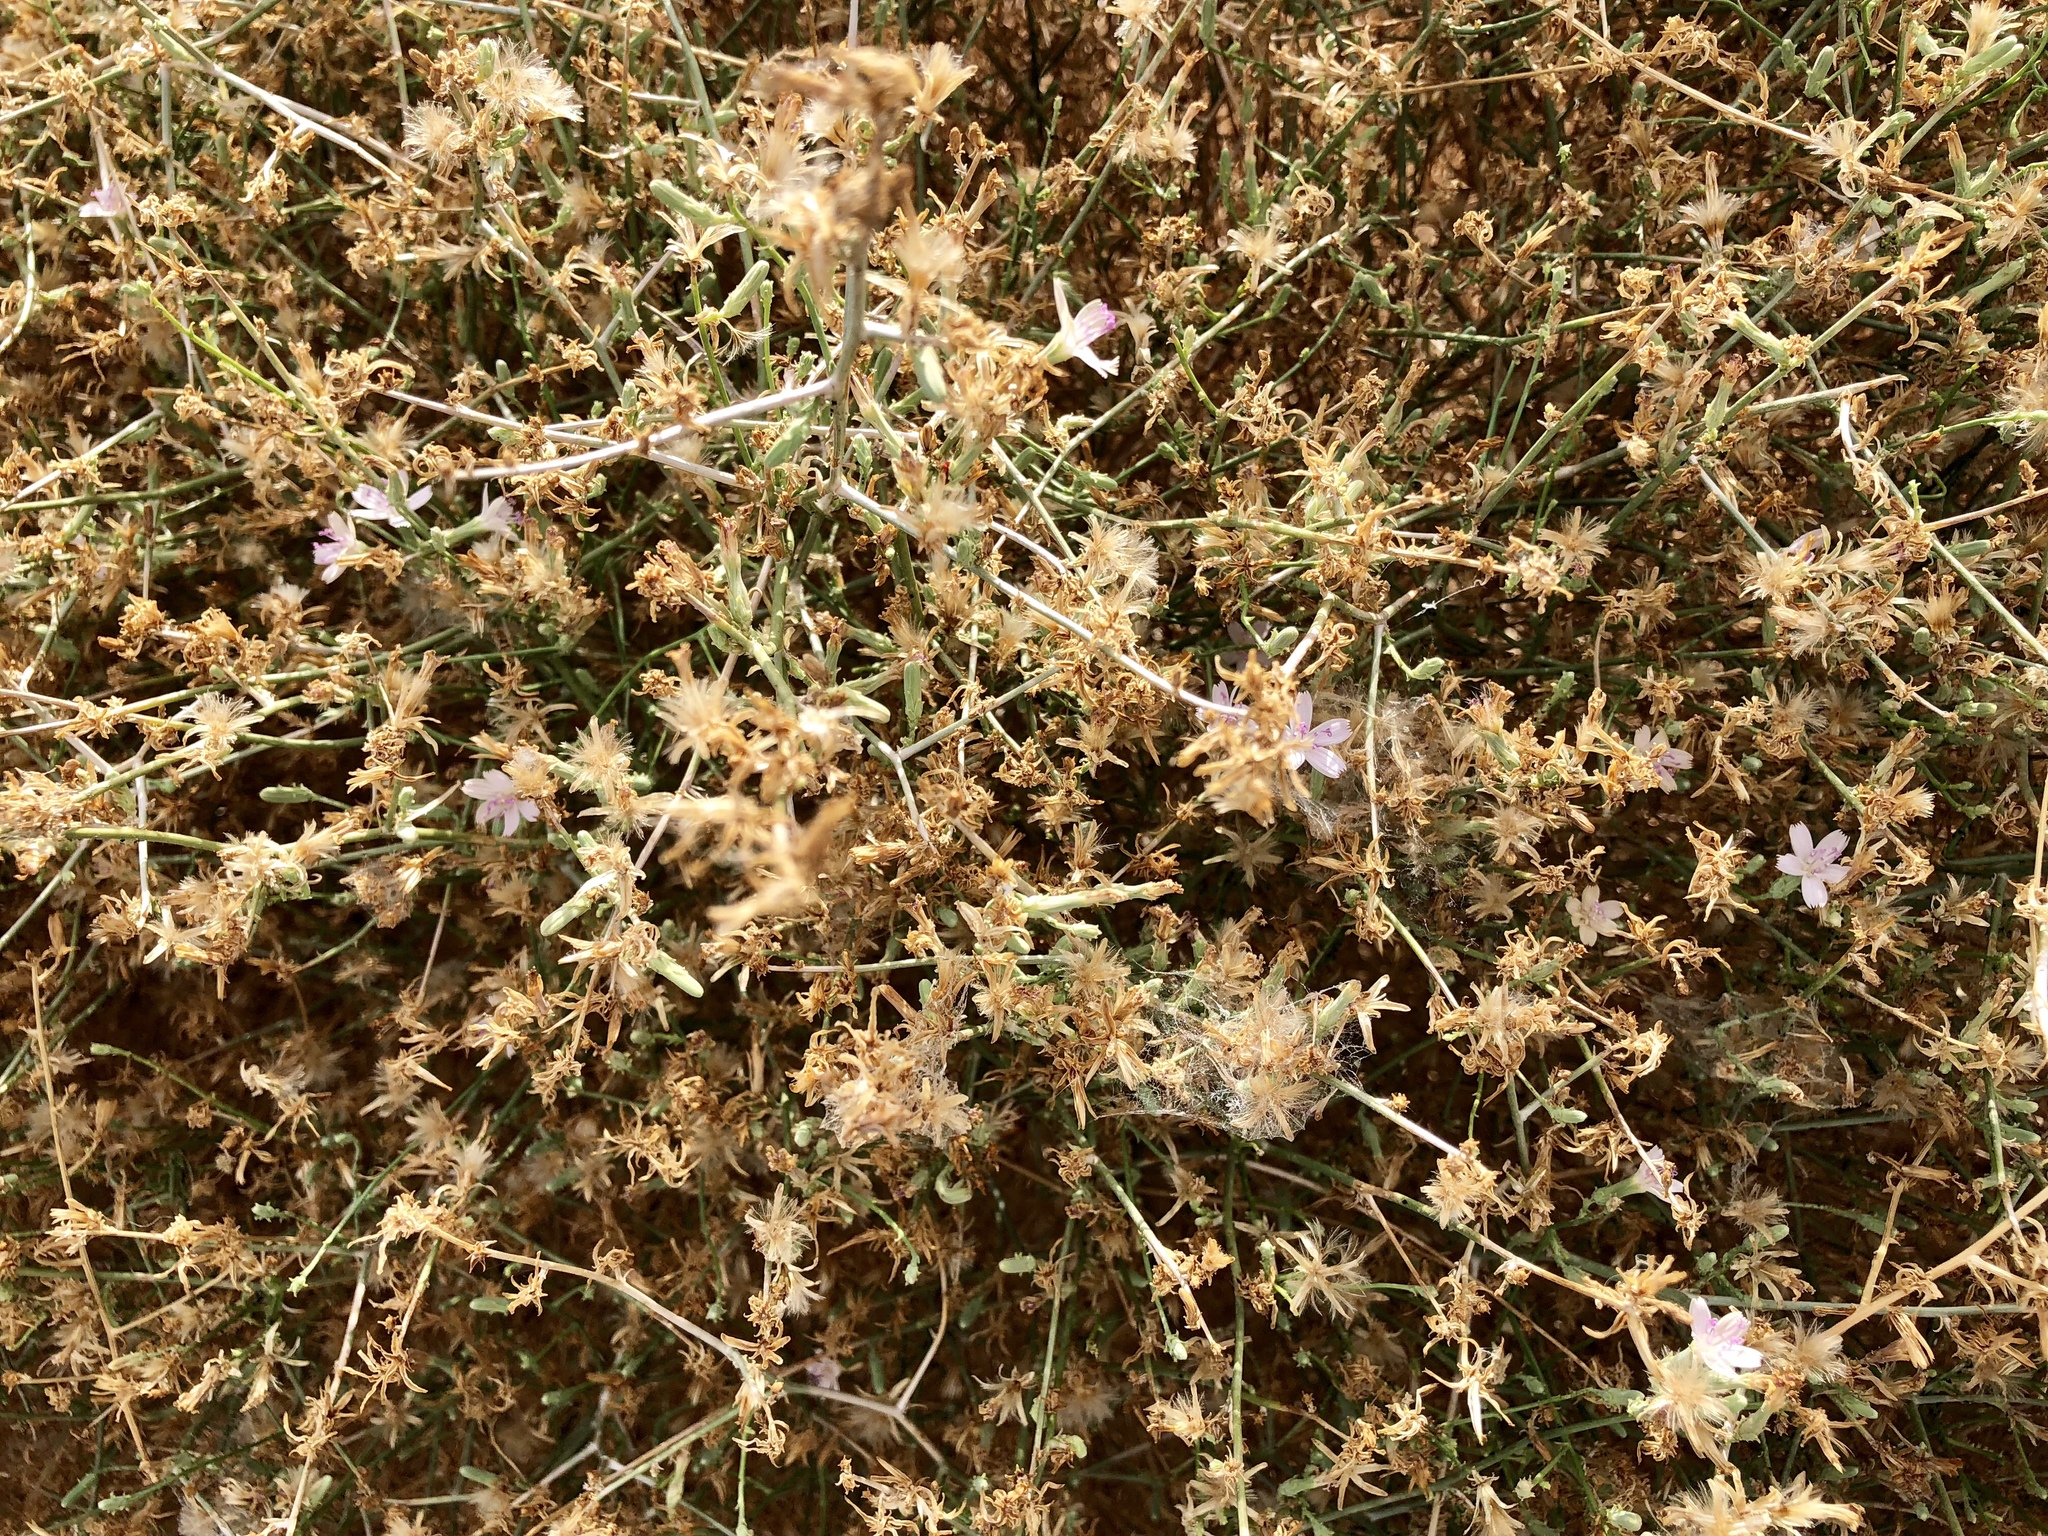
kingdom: Plantae
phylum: Tracheophyta
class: Magnoliopsida
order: Asterales
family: Asteraceae
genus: Stephanomeria
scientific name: Stephanomeria pauciflora
